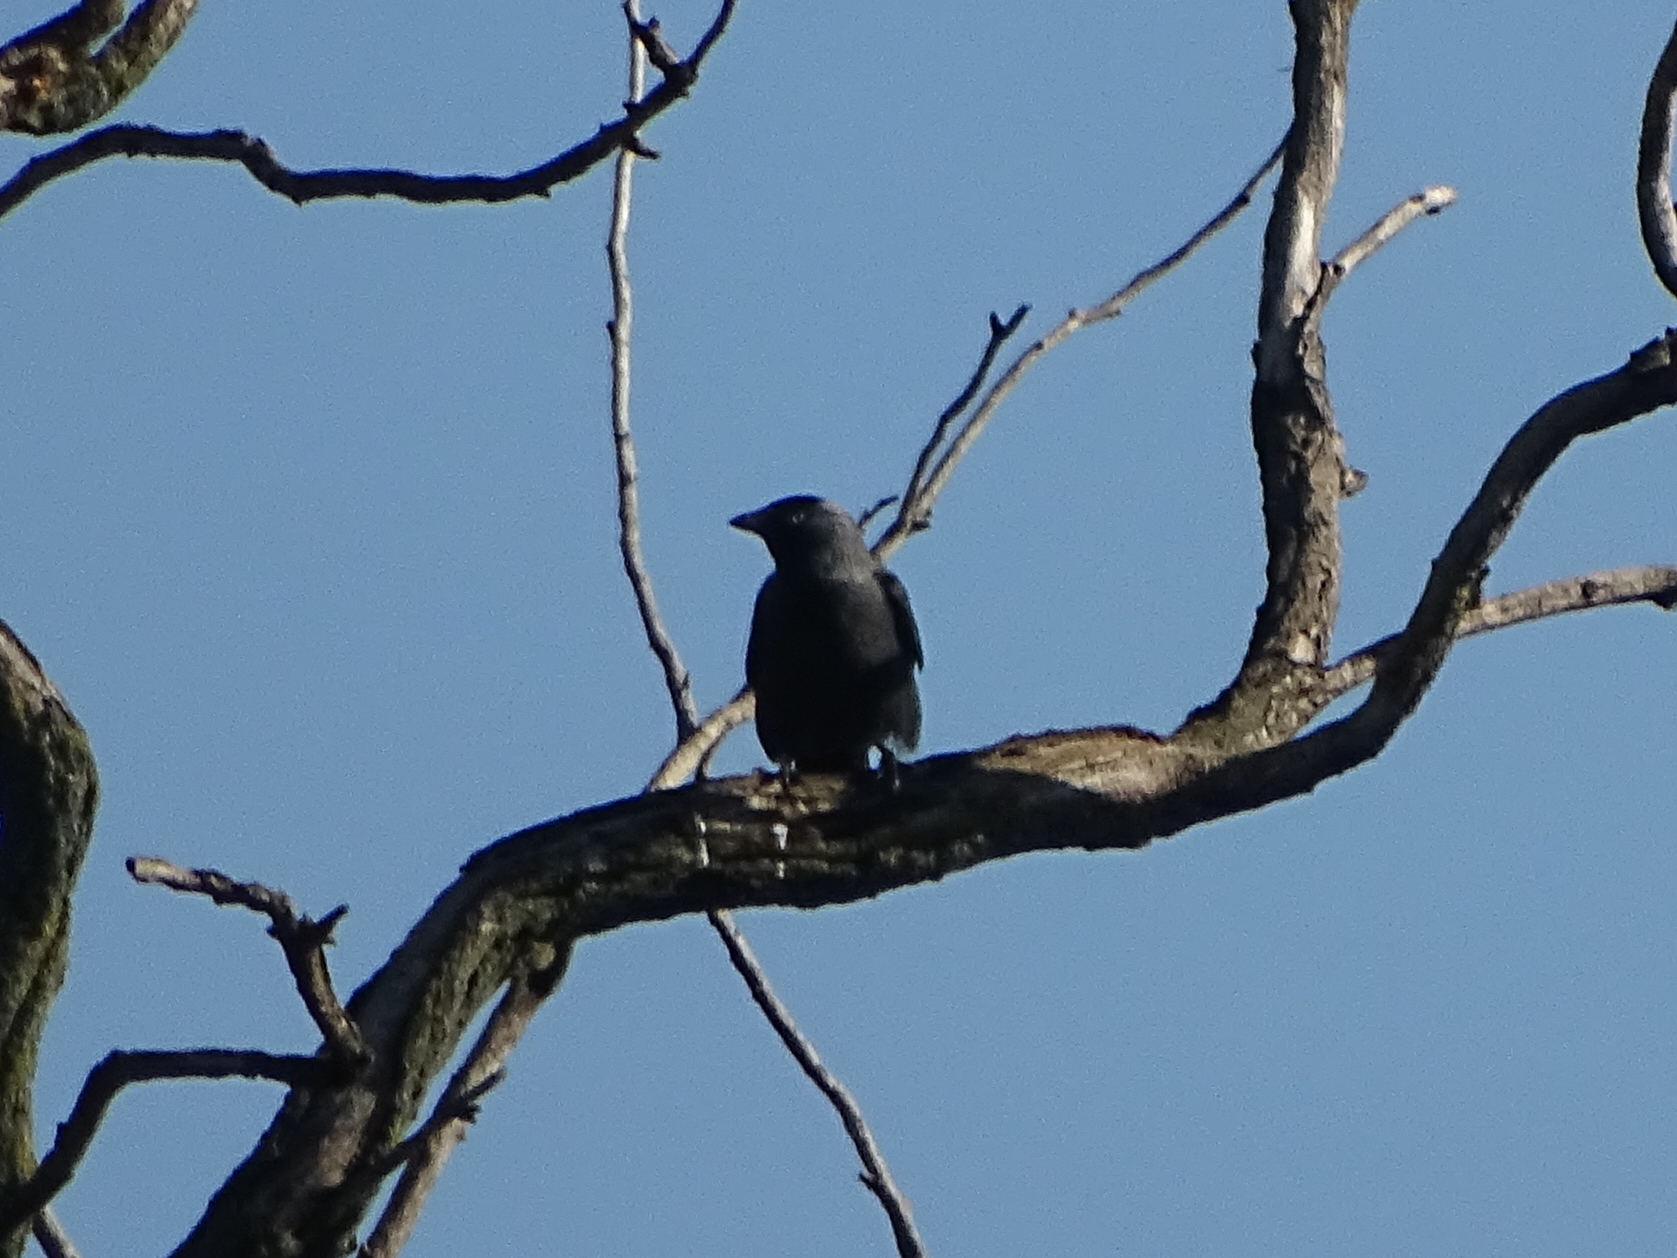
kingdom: Animalia
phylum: Chordata
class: Aves
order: Passeriformes
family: Corvidae
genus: Coloeus
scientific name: Coloeus monedula
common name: Western jackdaw
